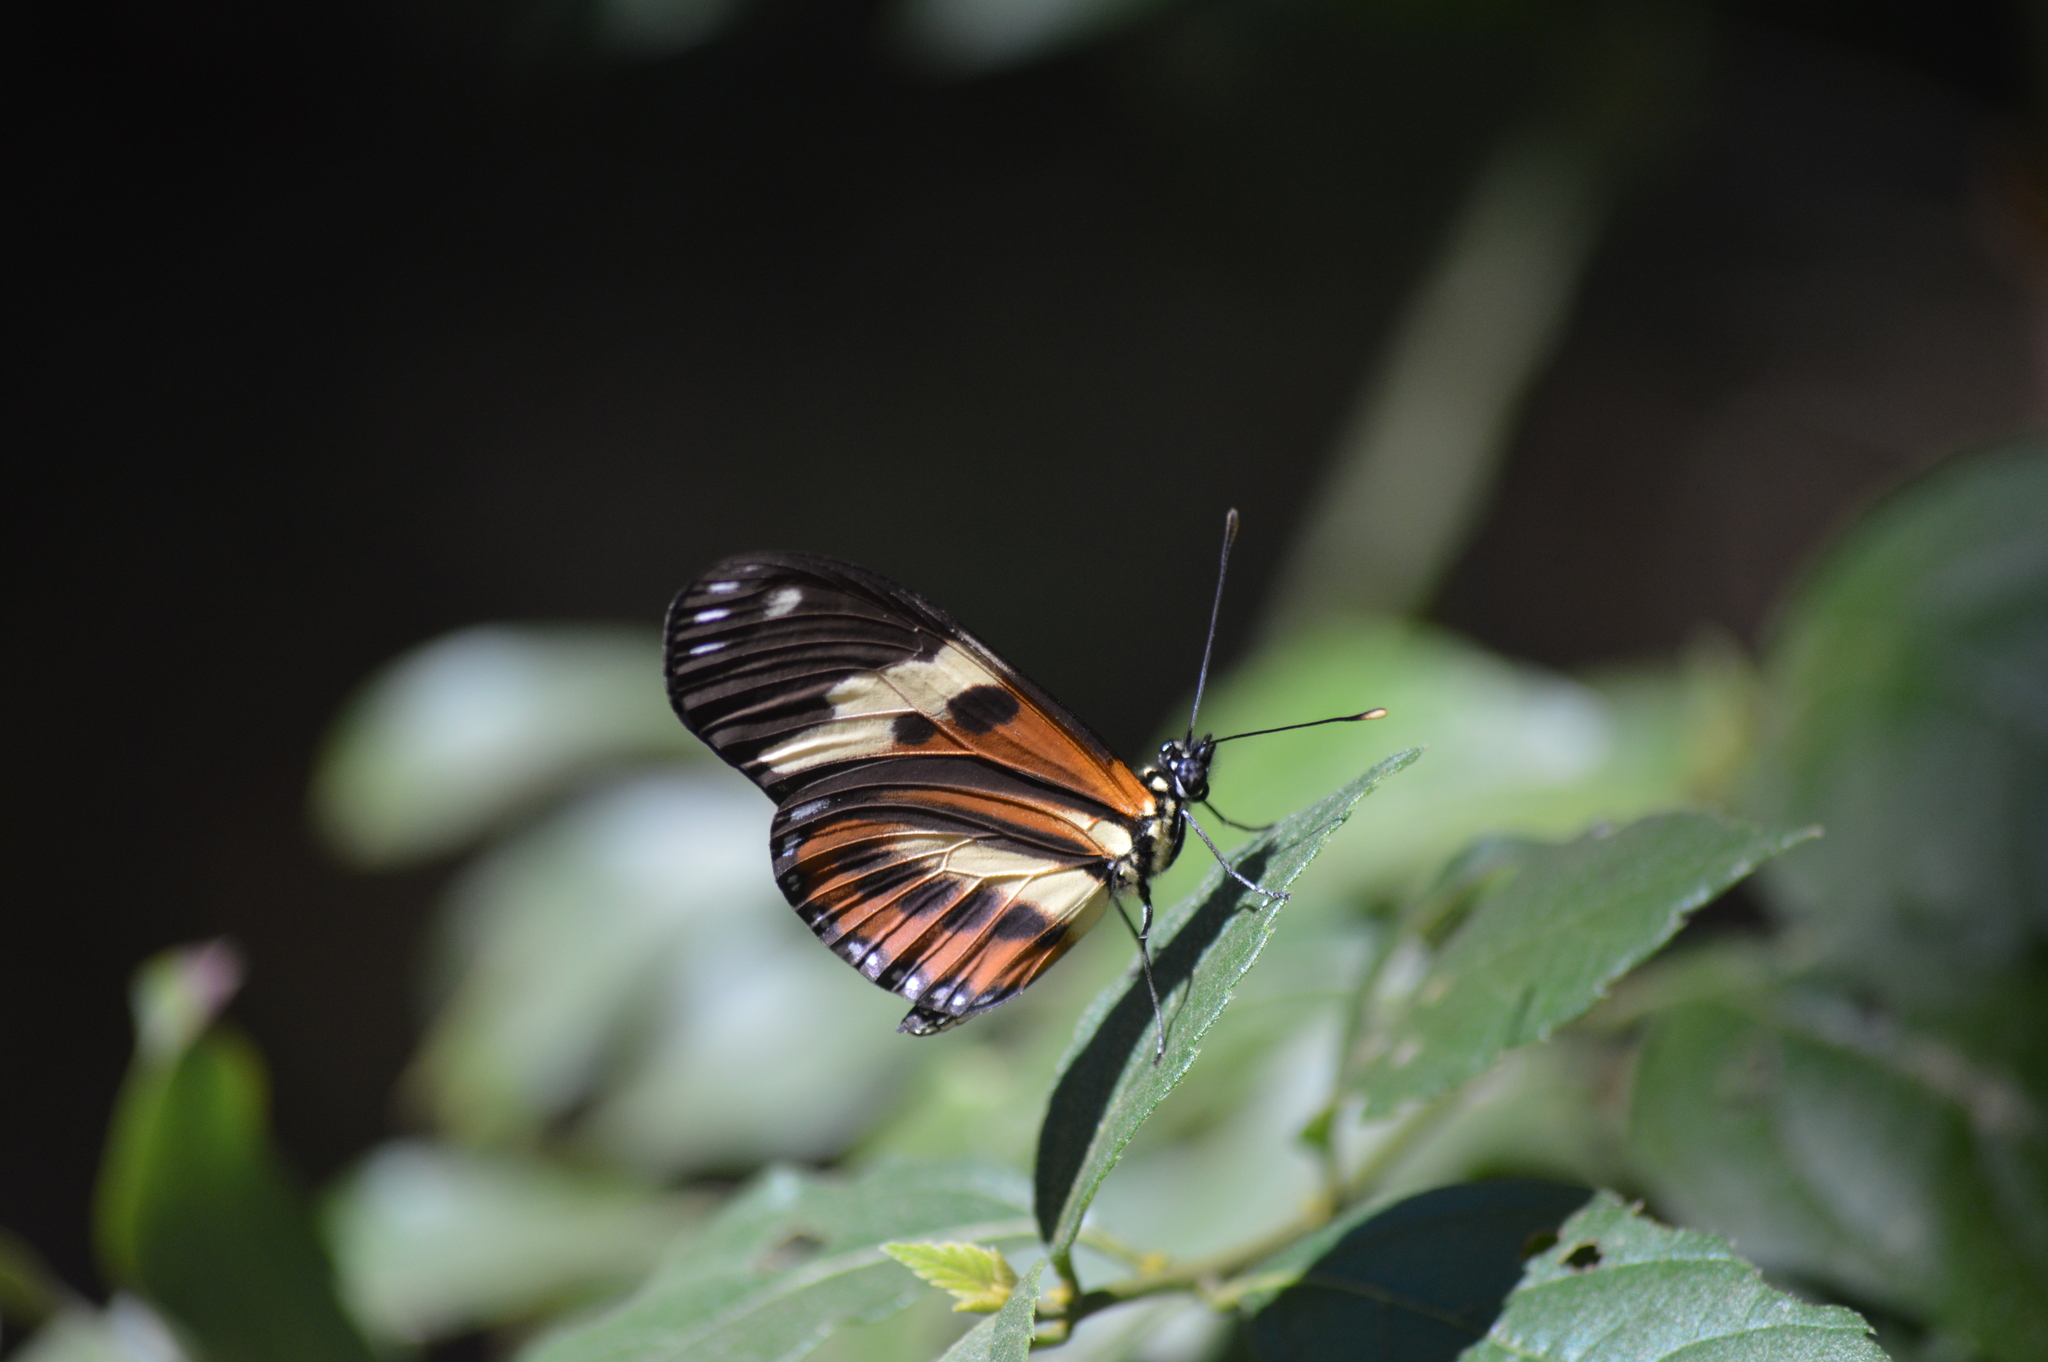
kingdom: Animalia
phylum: Arthropoda
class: Insecta
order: Lepidoptera
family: Nymphalidae
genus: Eueides
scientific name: Eueides isabella
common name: Isabella's longwing
